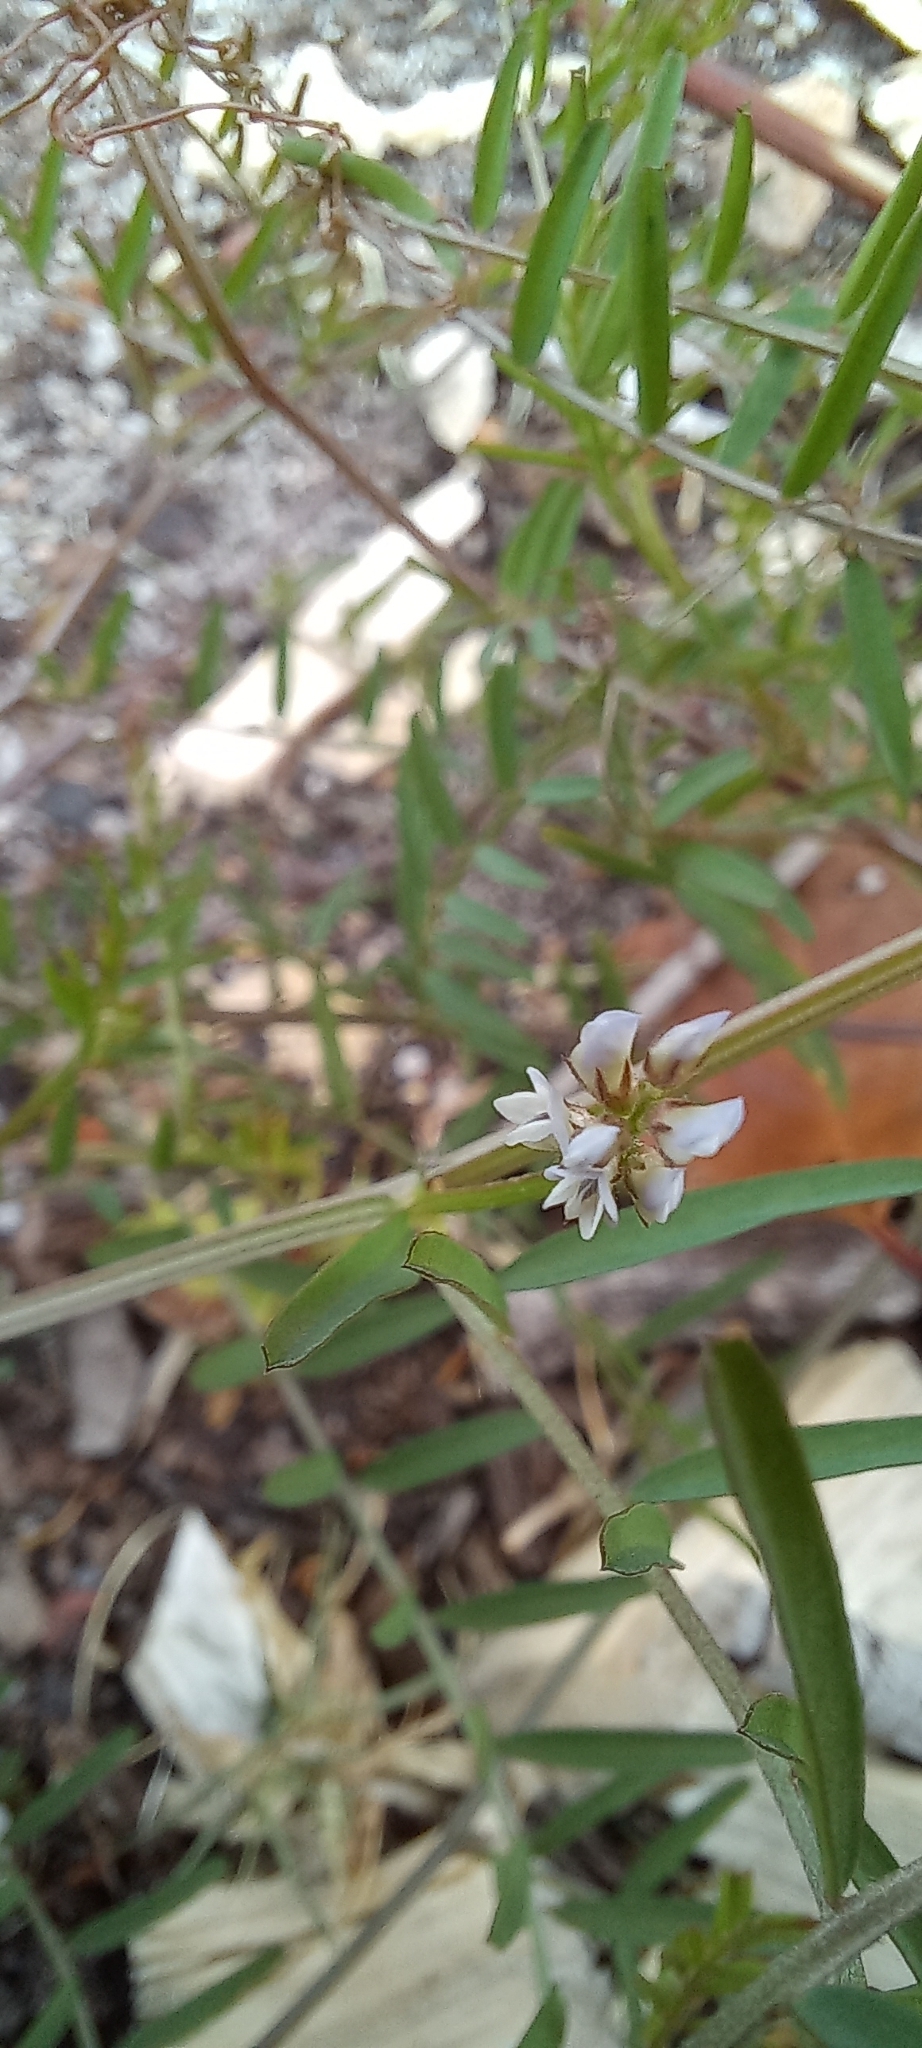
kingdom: Plantae
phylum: Tracheophyta
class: Magnoliopsida
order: Fabales
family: Fabaceae
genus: Vicia
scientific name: Vicia hirsuta
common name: Tiny vetch
